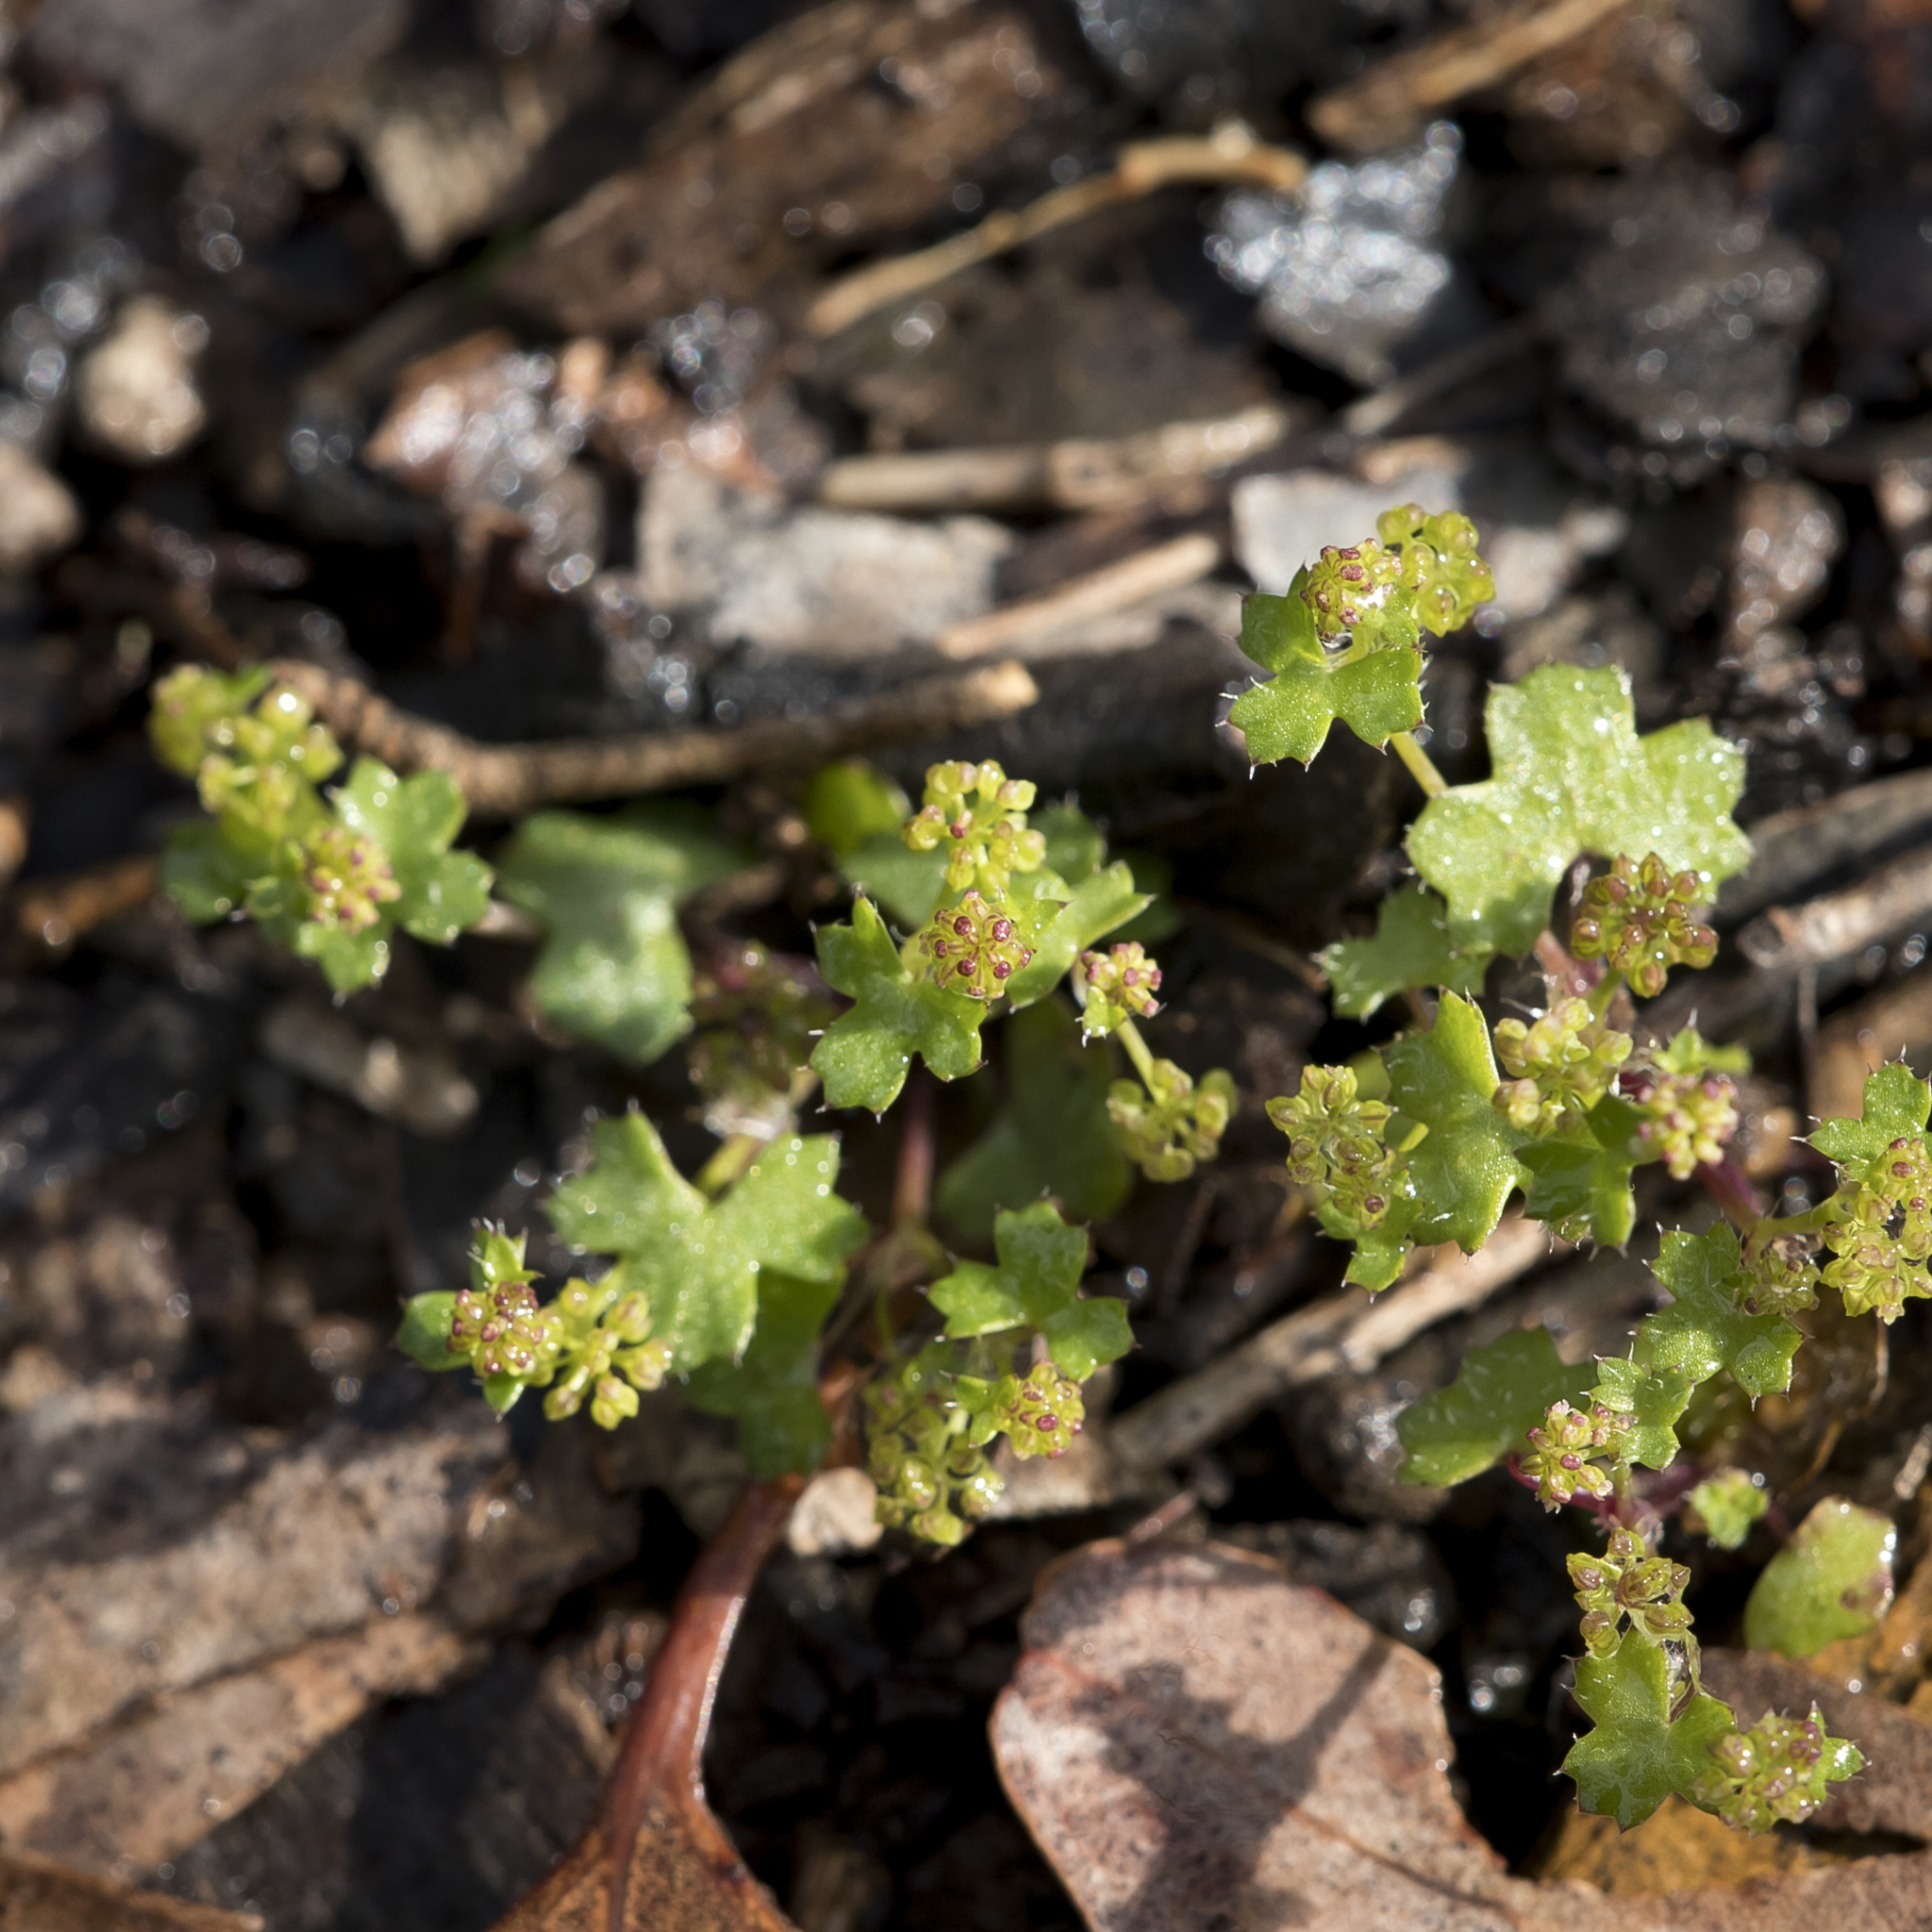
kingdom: Plantae
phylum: Tracheophyta
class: Magnoliopsida
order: Apiales
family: Araliaceae
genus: Hydrocotyle
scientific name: Hydrocotyle callicarpa
